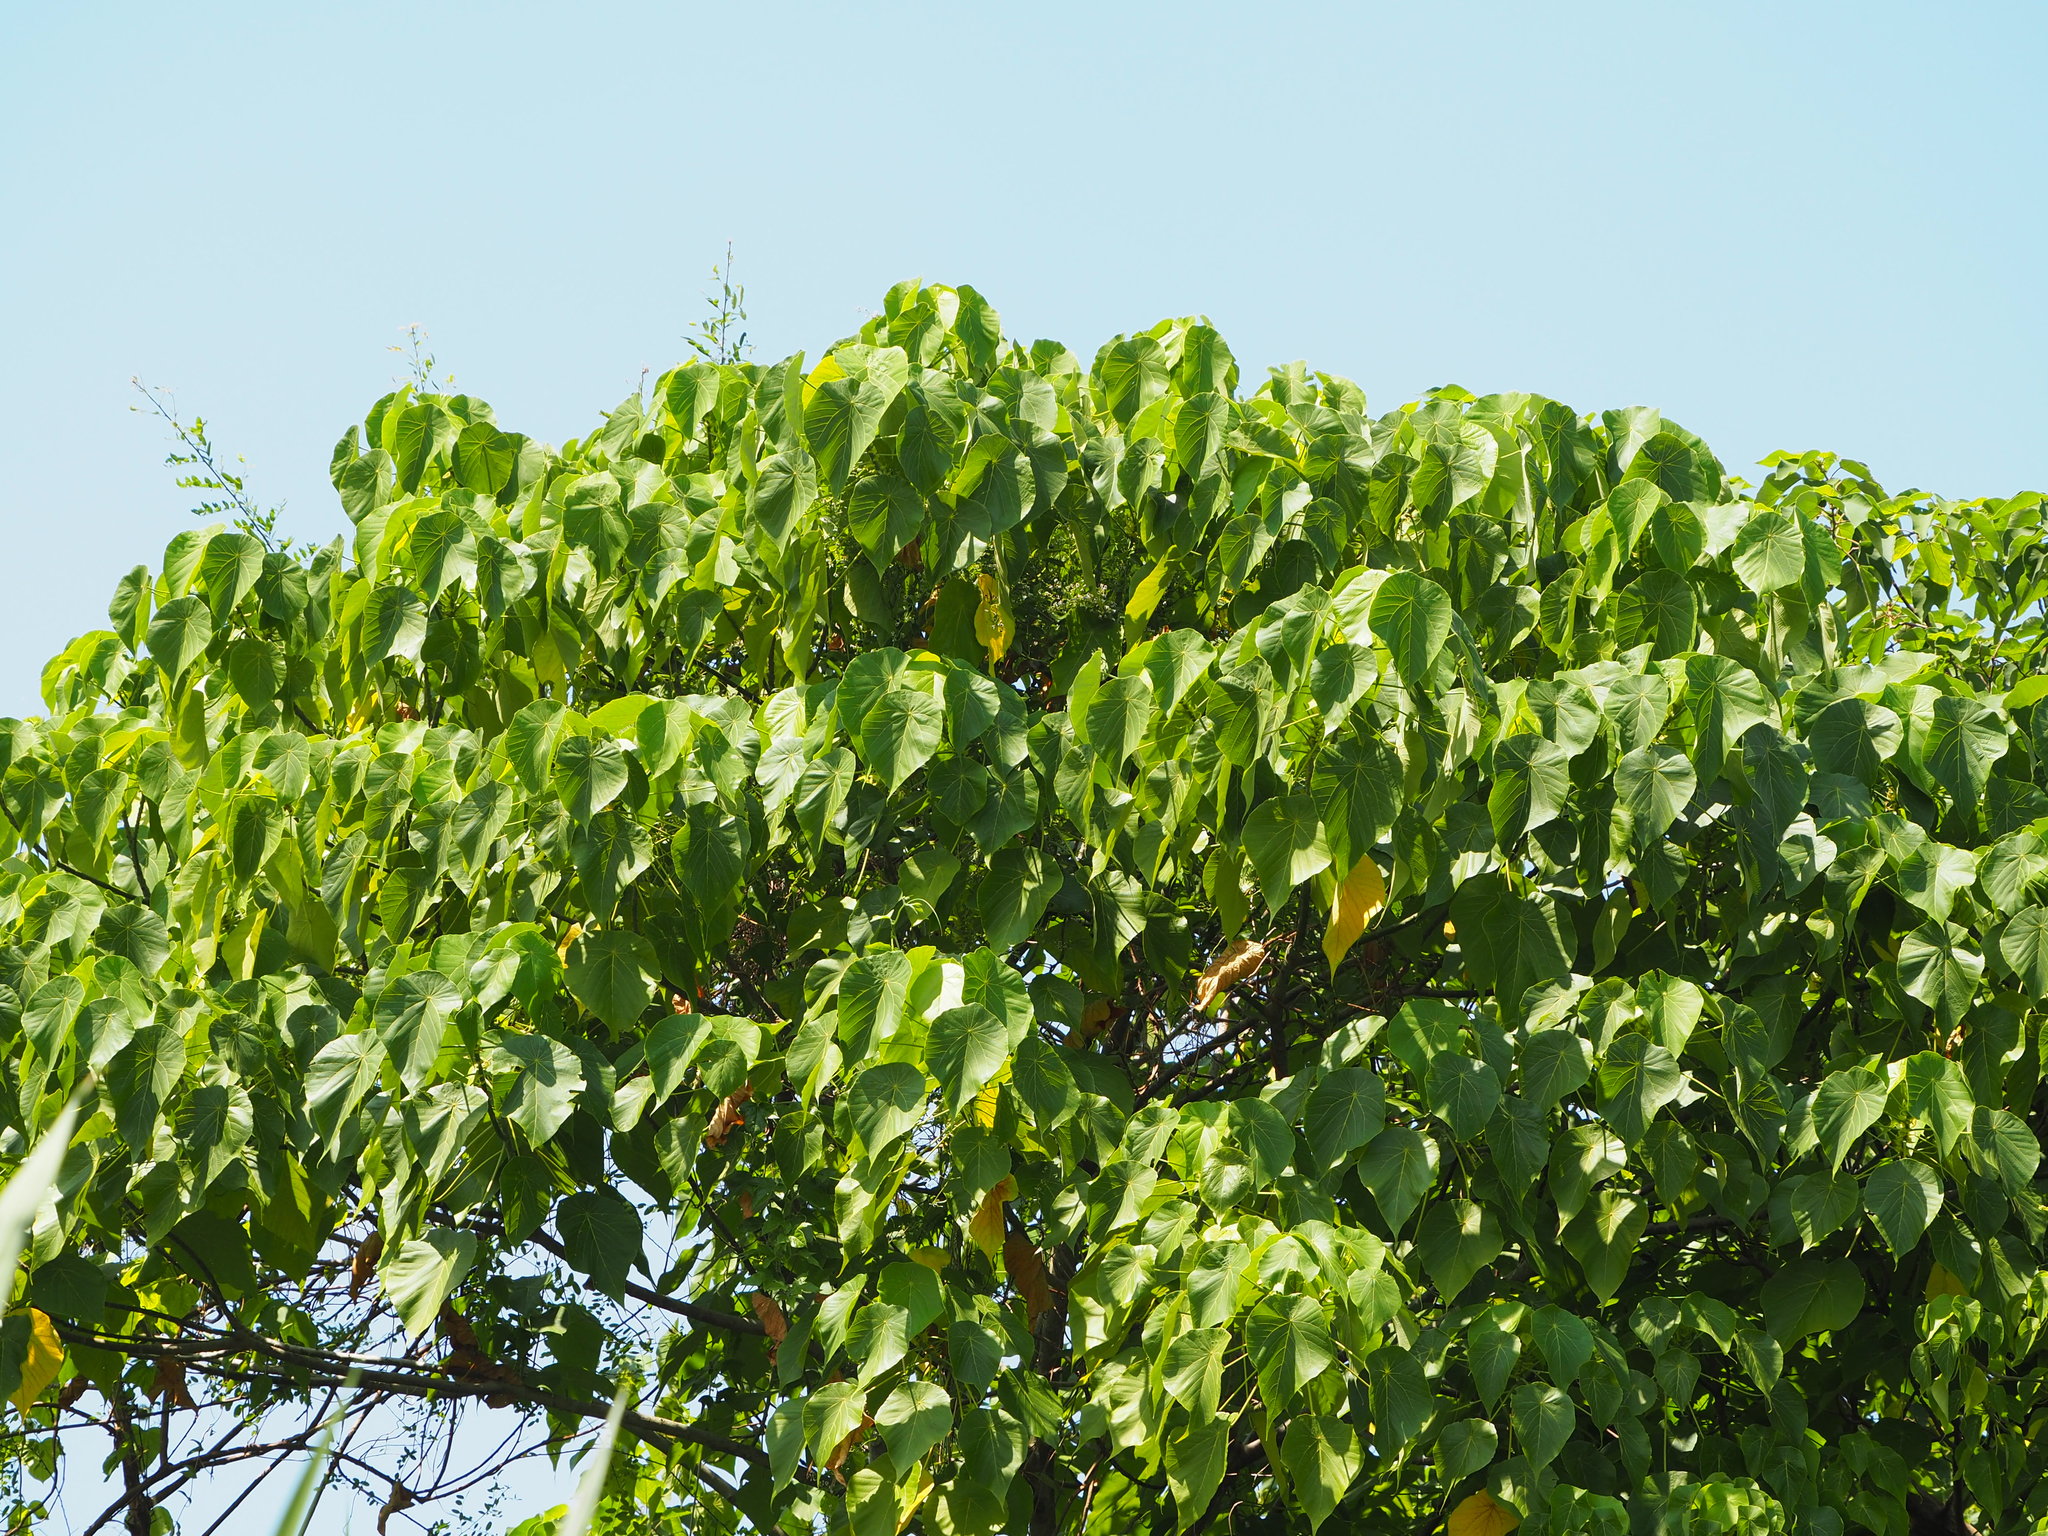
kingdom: Plantae
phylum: Tracheophyta
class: Magnoliopsida
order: Malpighiales
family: Euphorbiaceae
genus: Macaranga
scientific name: Macaranga tanarius
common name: Parasol leaf tree
